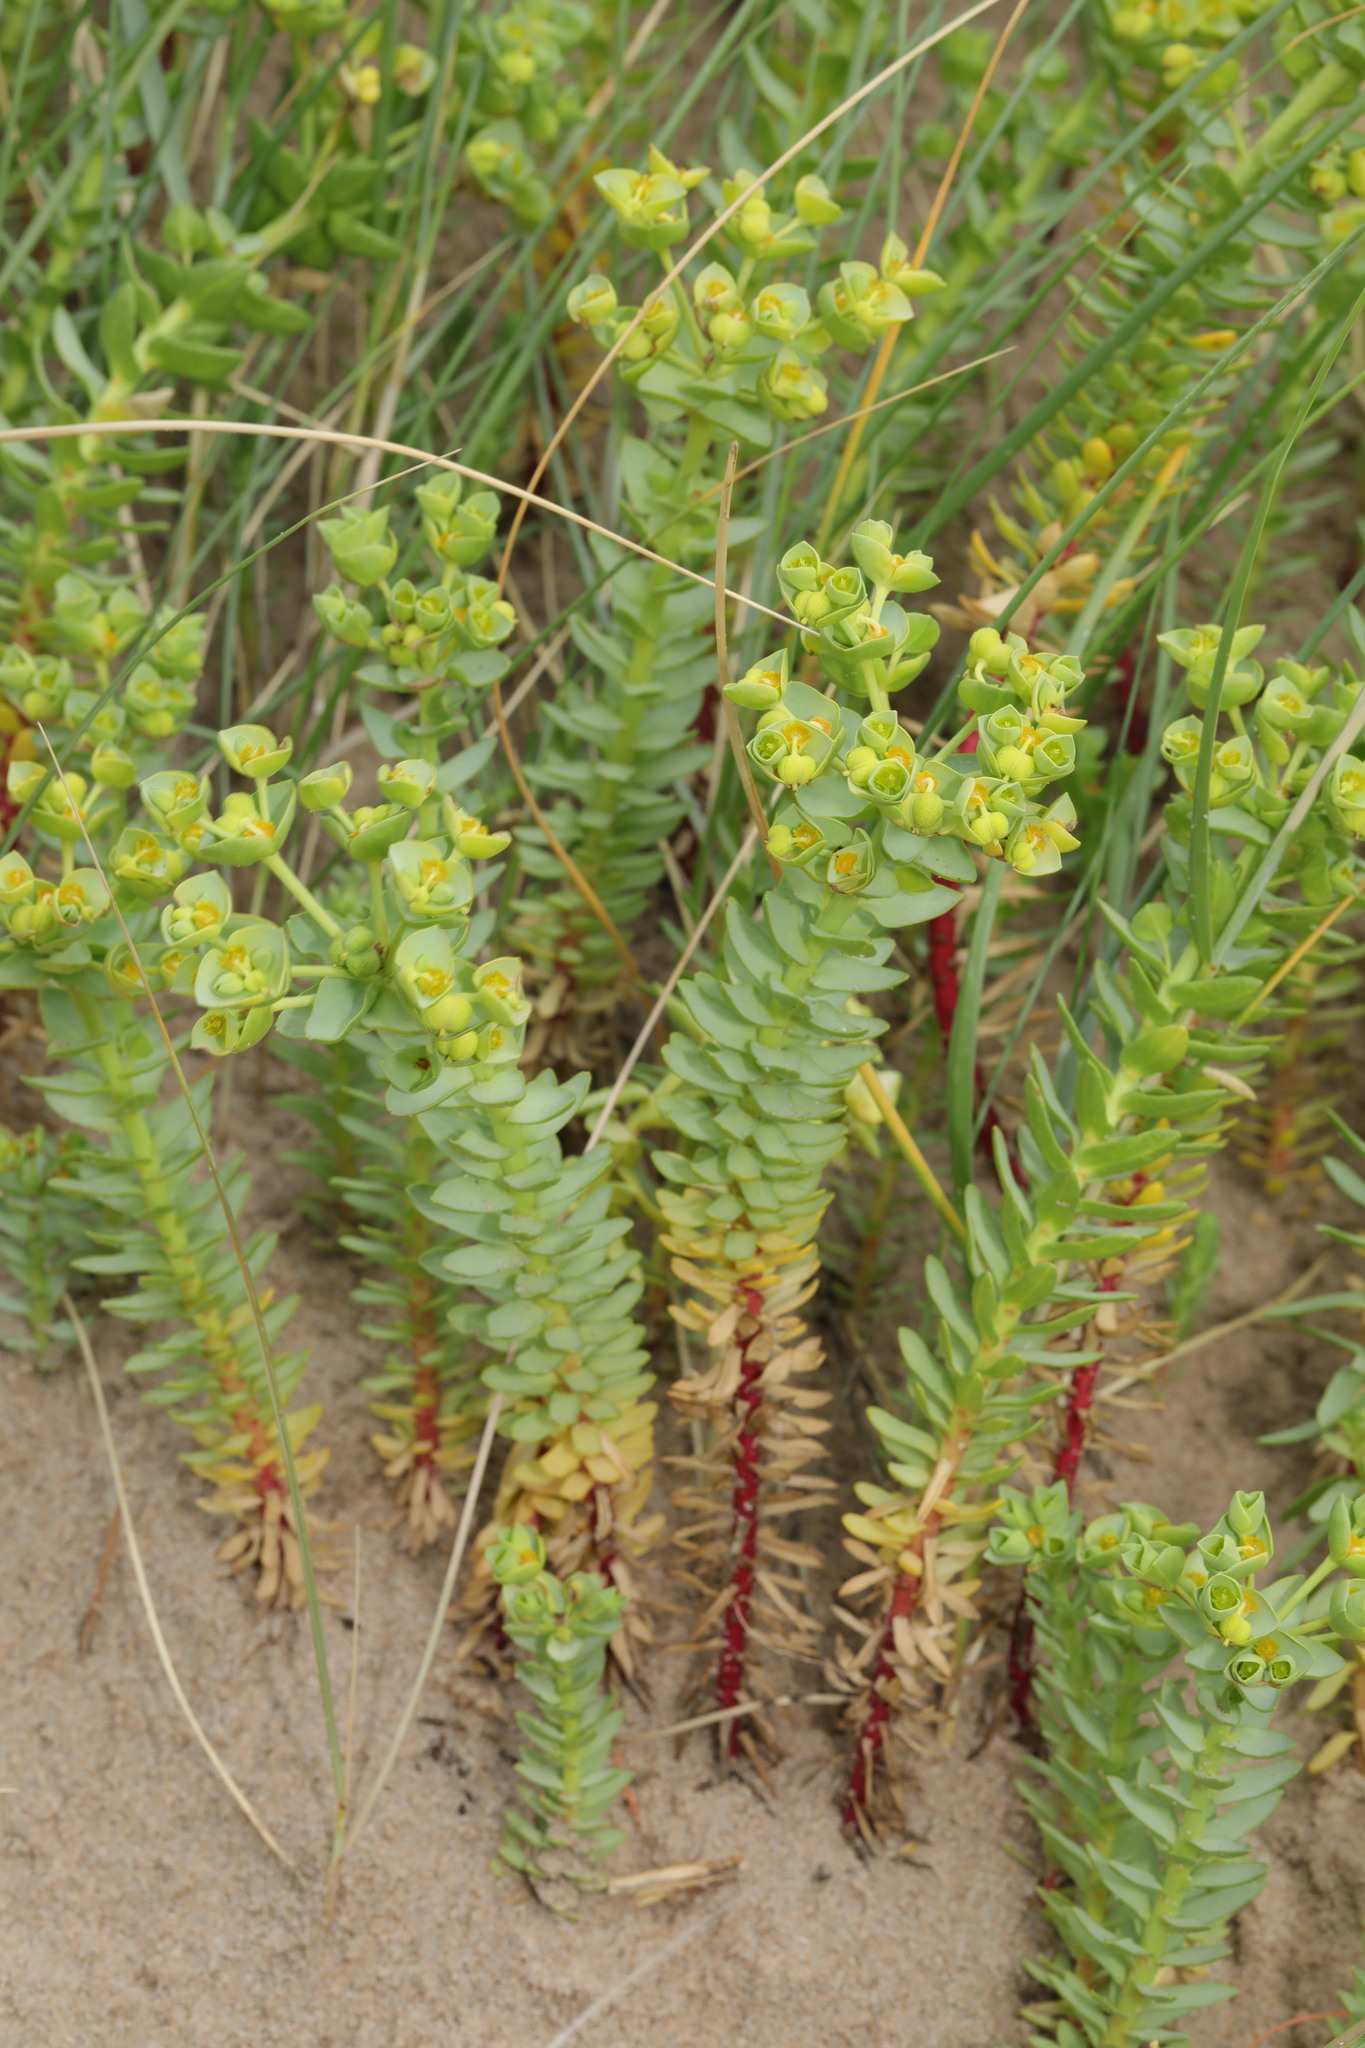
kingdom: Plantae
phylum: Tracheophyta
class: Magnoliopsida
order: Malpighiales
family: Euphorbiaceae
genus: Euphorbia
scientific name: Euphorbia paralias
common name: Sea spurge
